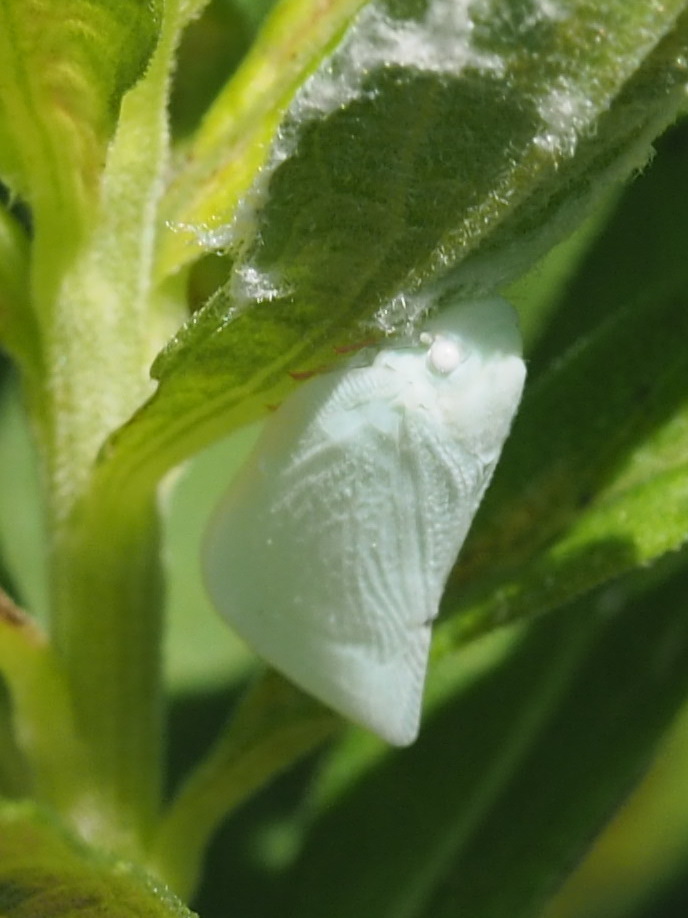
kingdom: Animalia
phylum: Arthropoda
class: Insecta
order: Hemiptera
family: Flatidae
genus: Flatormenis
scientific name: Flatormenis proxima
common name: Northern flatid planthopper
